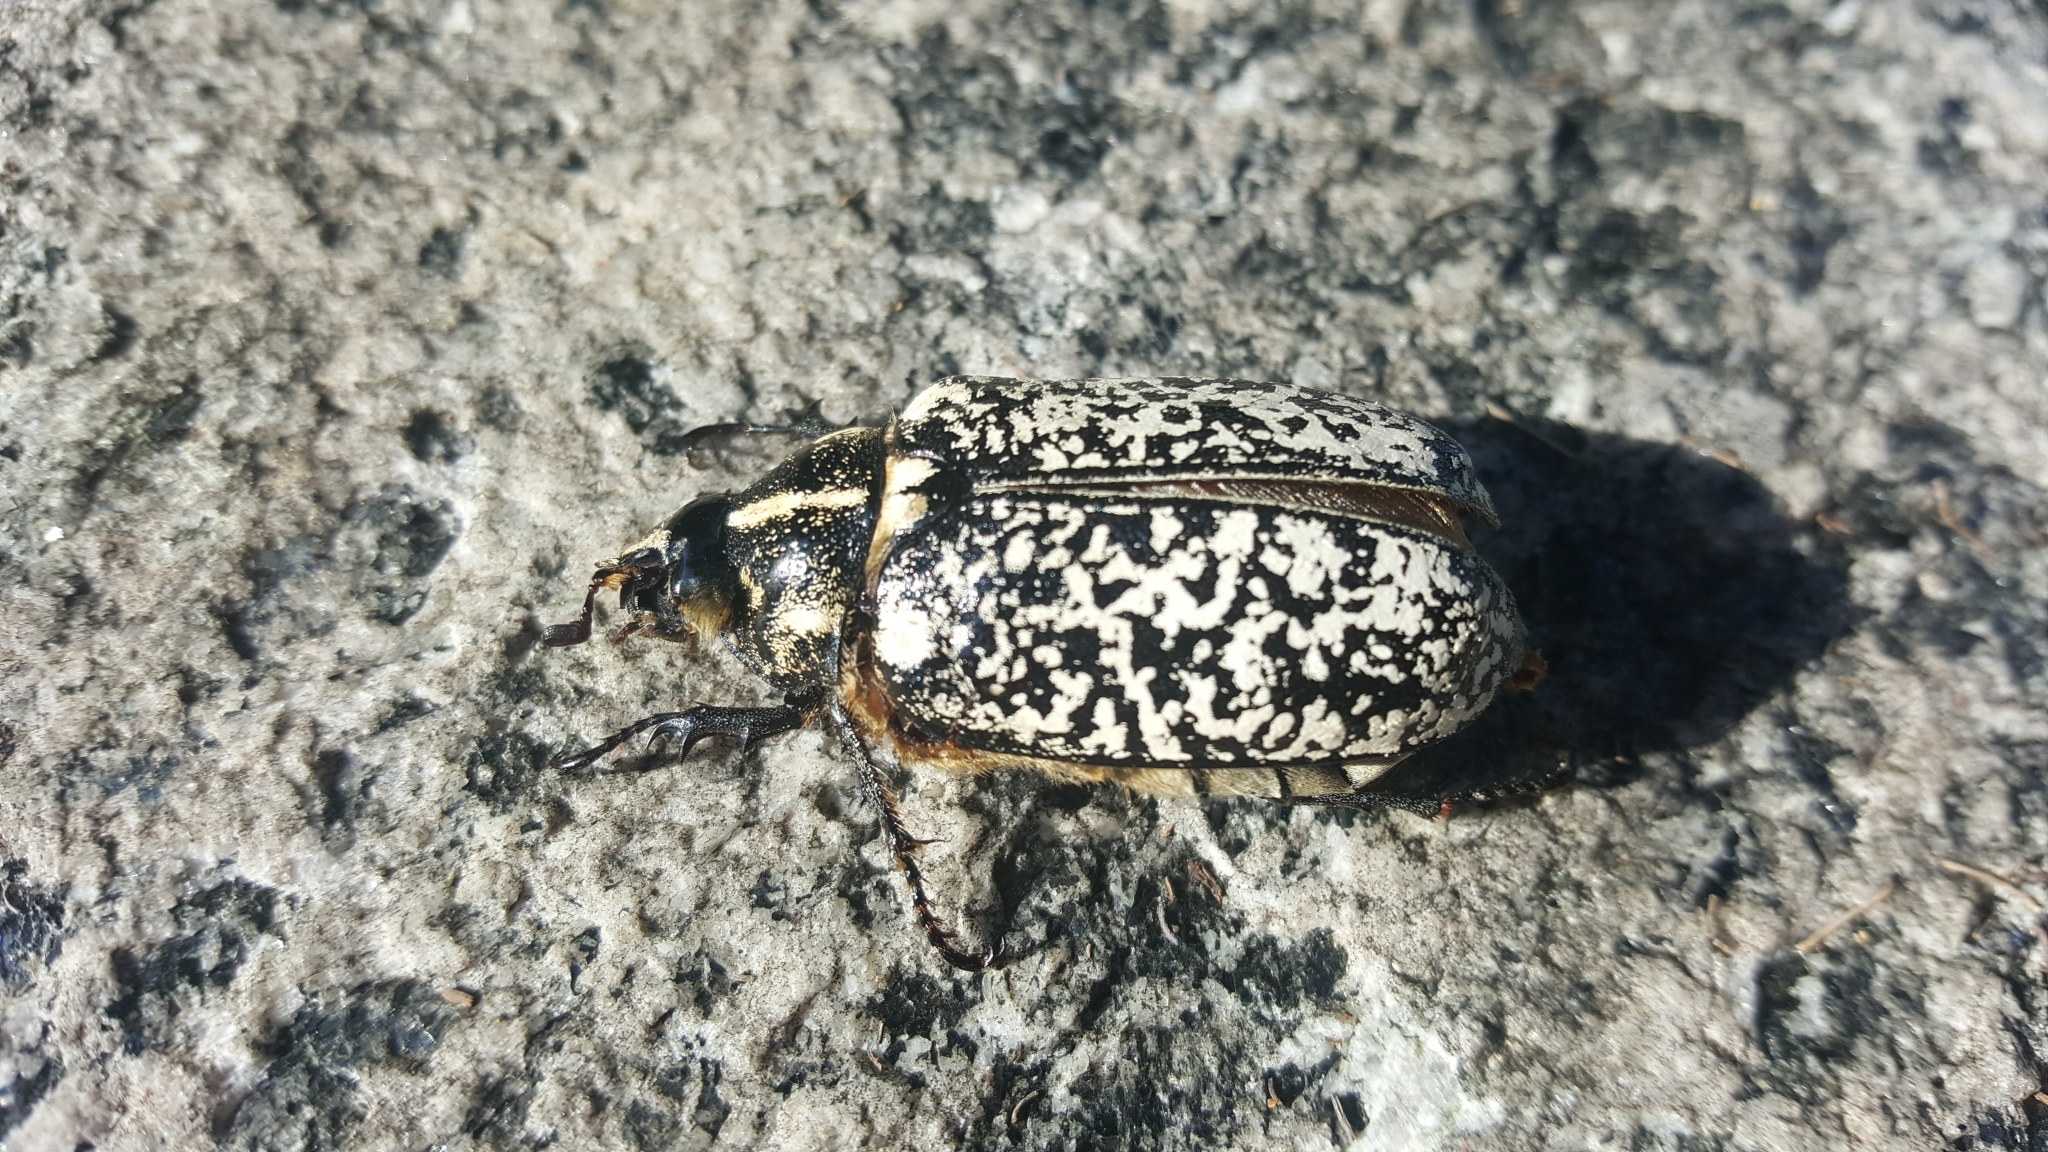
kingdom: Animalia
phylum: Arthropoda
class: Insecta
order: Coleoptera
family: Scarabaeidae
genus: Polyphylla
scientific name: Polyphylla fullo
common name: Pine chafer
